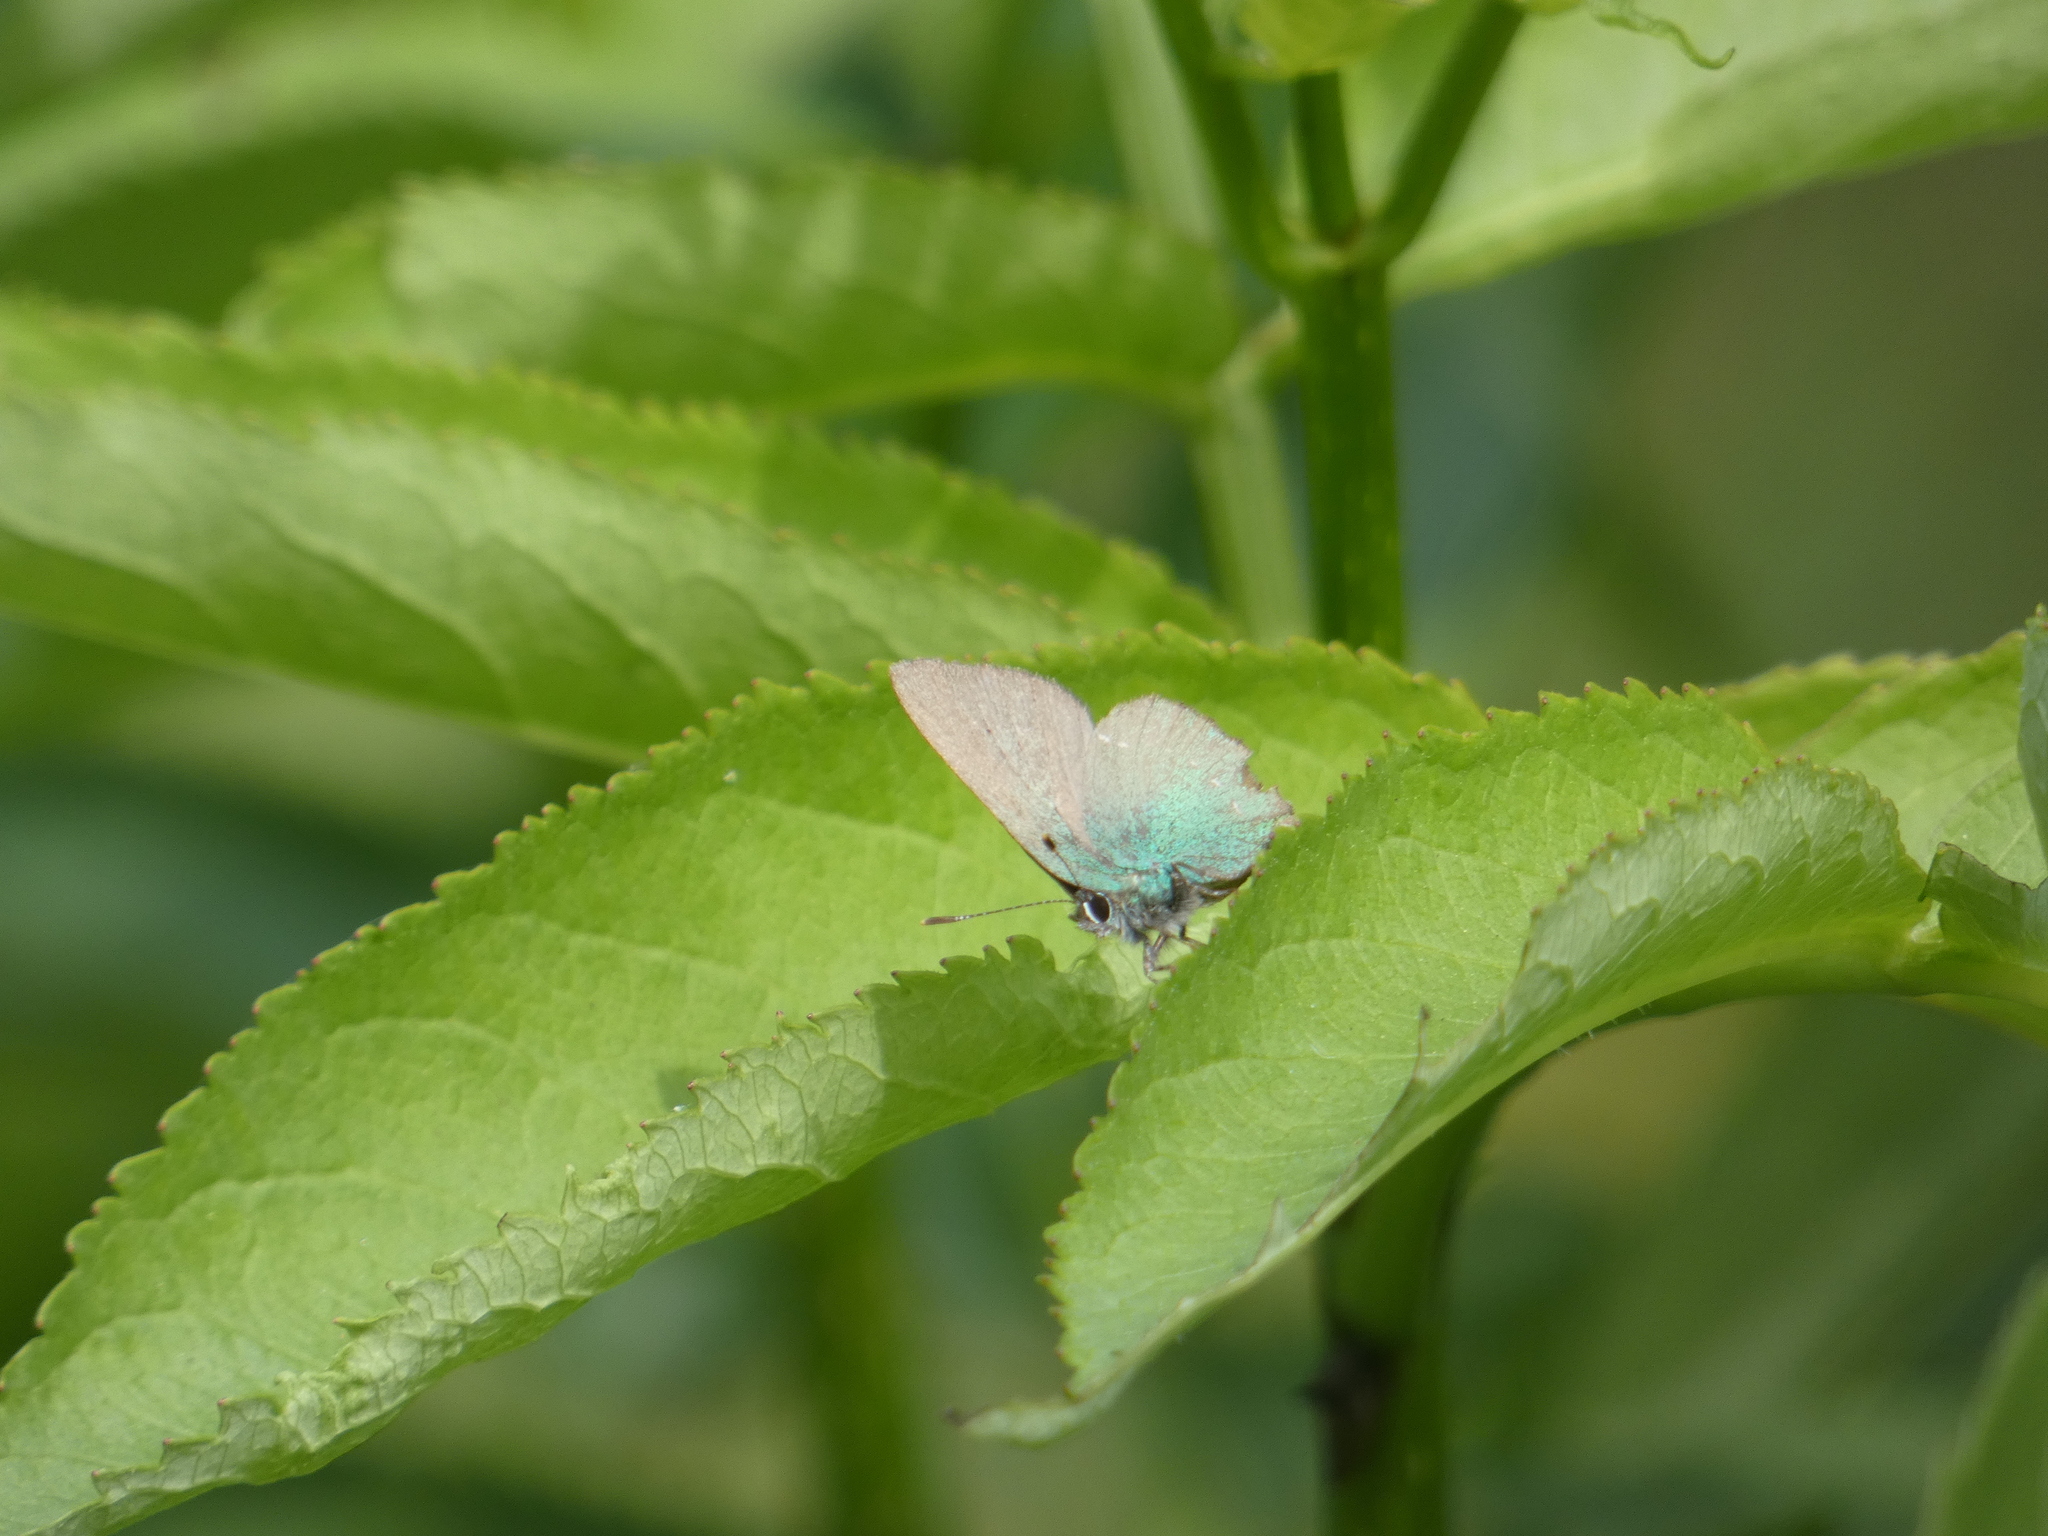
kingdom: Animalia
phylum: Arthropoda
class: Insecta
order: Lepidoptera
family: Lycaenidae
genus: Callophrys
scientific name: Callophrys rubi
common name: Green hairstreak
